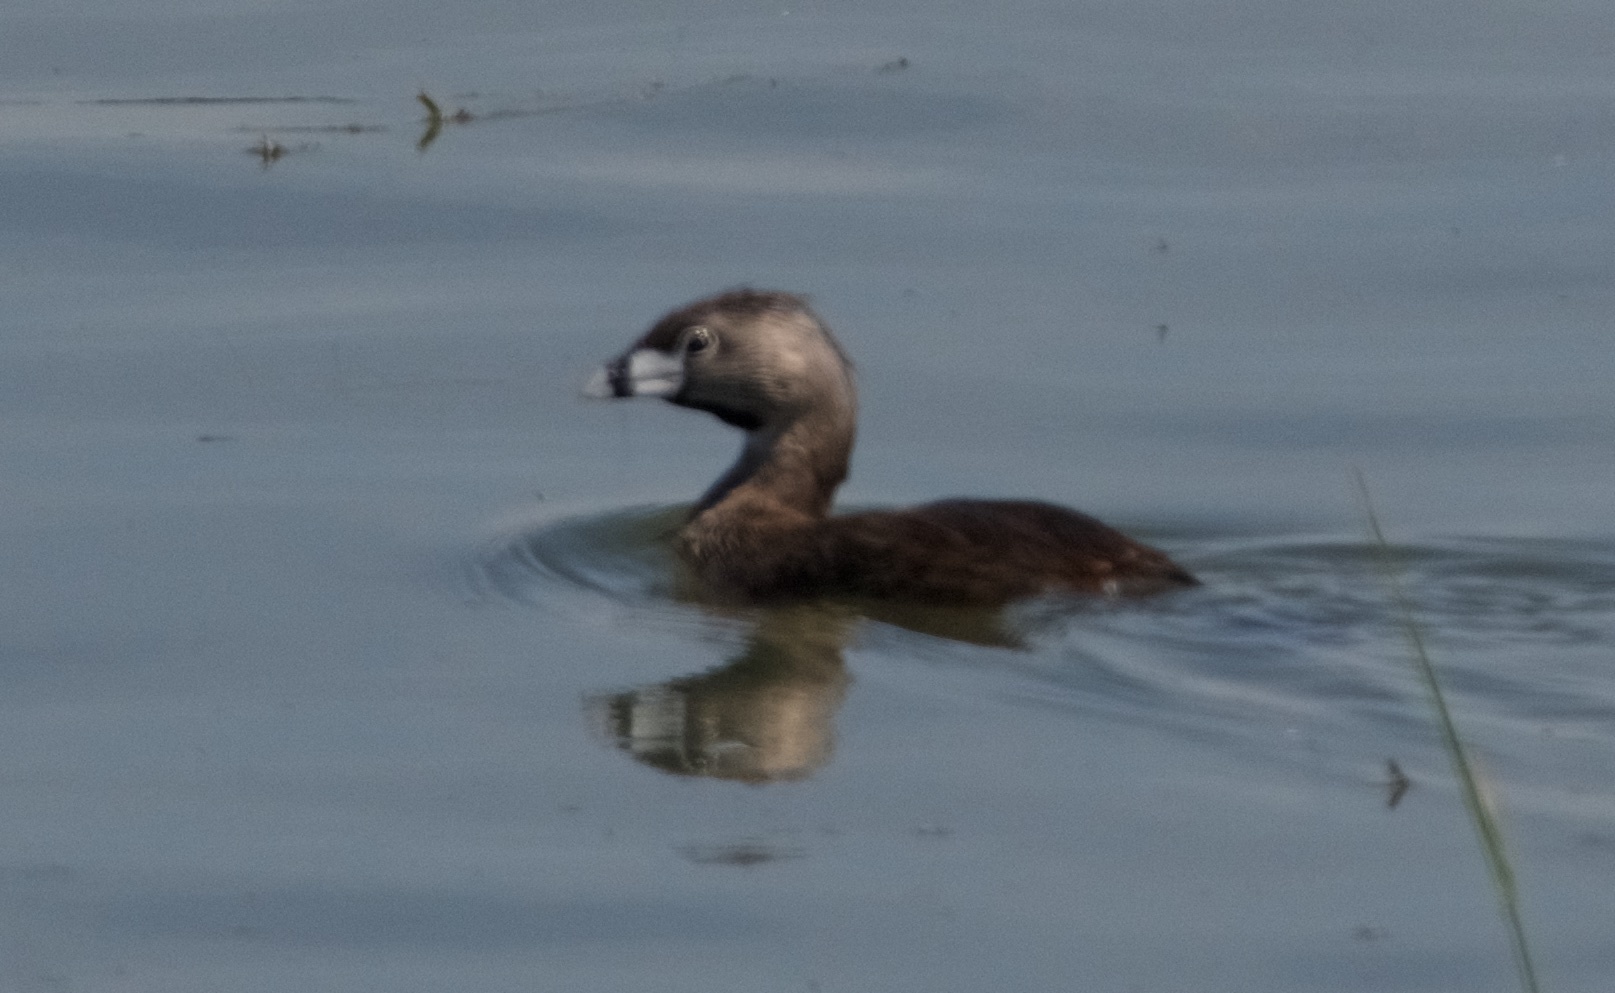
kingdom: Animalia
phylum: Chordata
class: Aves
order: Podicipediformes
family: Podicipedidae
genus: Podilymbus
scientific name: Podilymbus podiceps
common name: Pied-billed grebe
